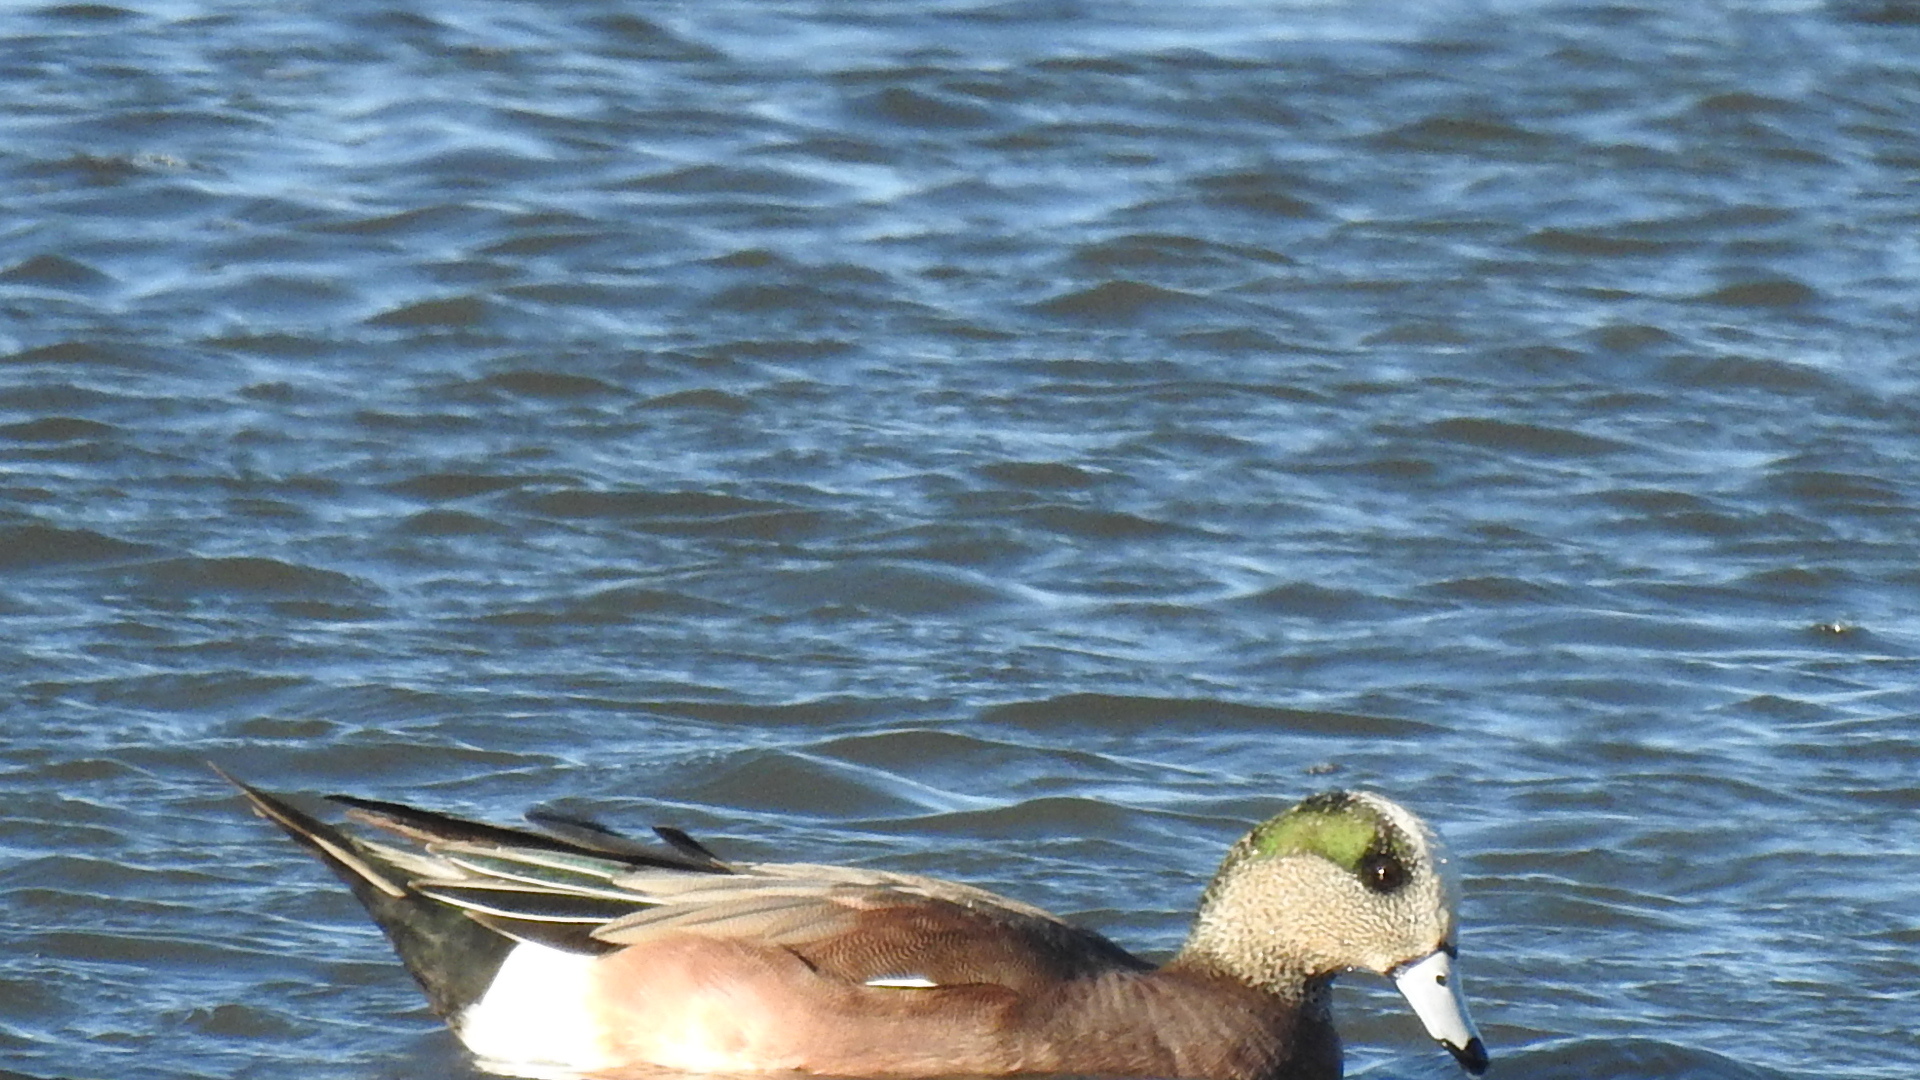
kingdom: Animalia
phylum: Chordata
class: Aves
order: Anseriformes
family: Anatidae
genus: Mareca
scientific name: Mareca americana
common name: American wigeon
